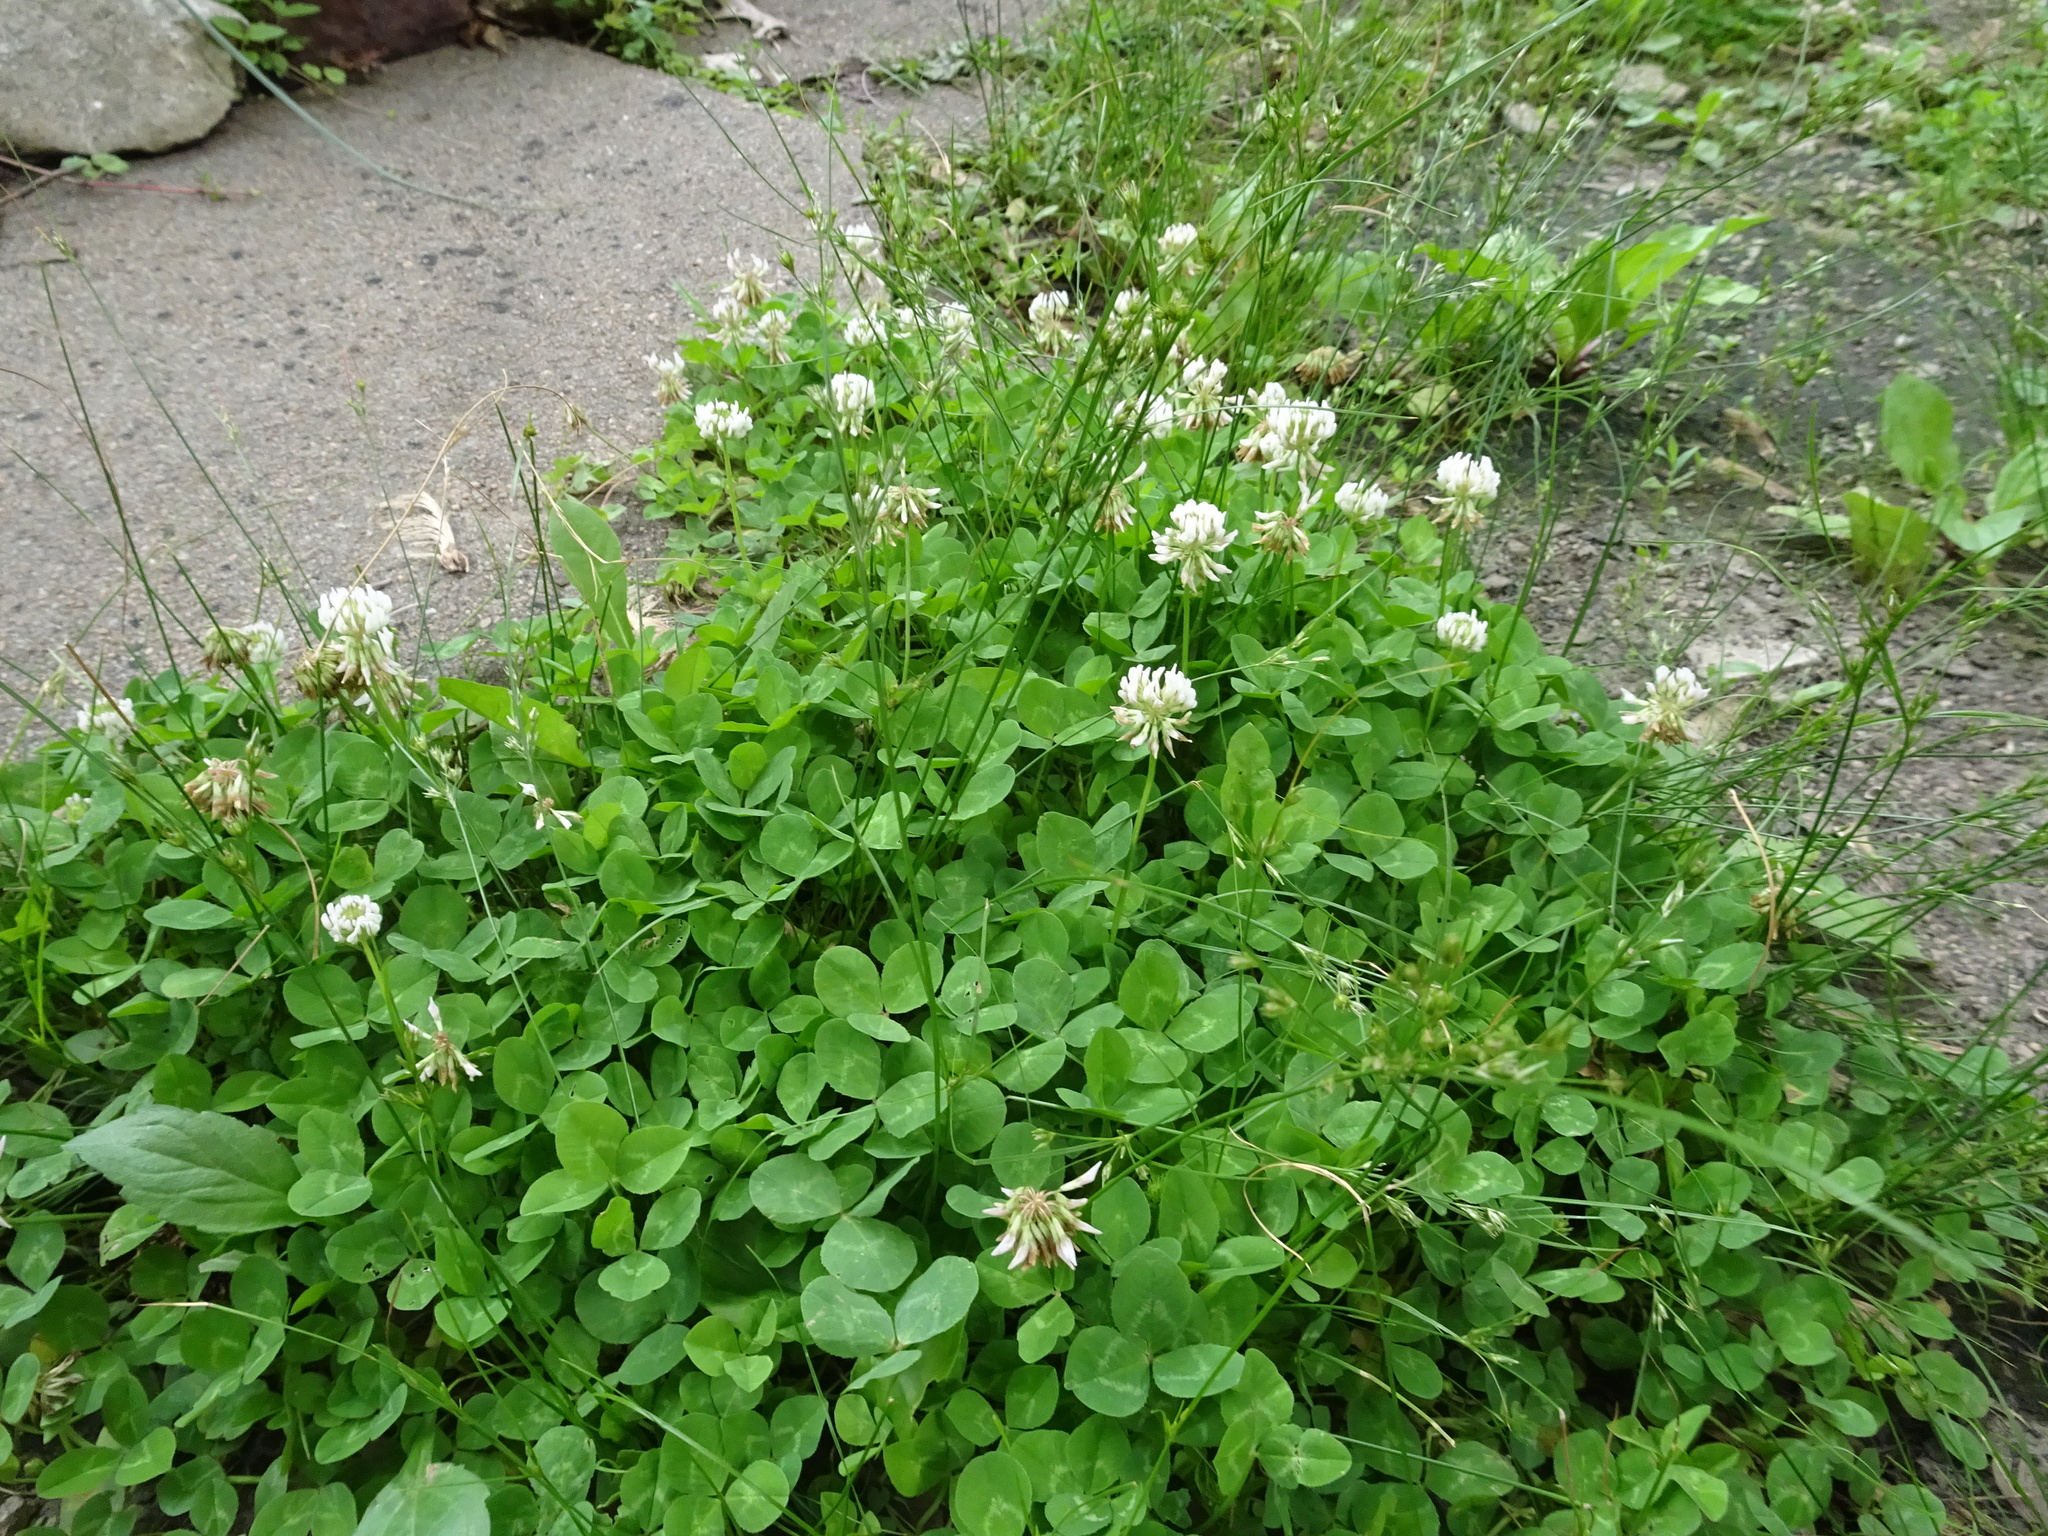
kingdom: Plantae
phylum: Tracheophyta
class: Magnoliopsida
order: Fabales
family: Fabaceae
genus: Trifolium
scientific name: Trifolium repens
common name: White clover
